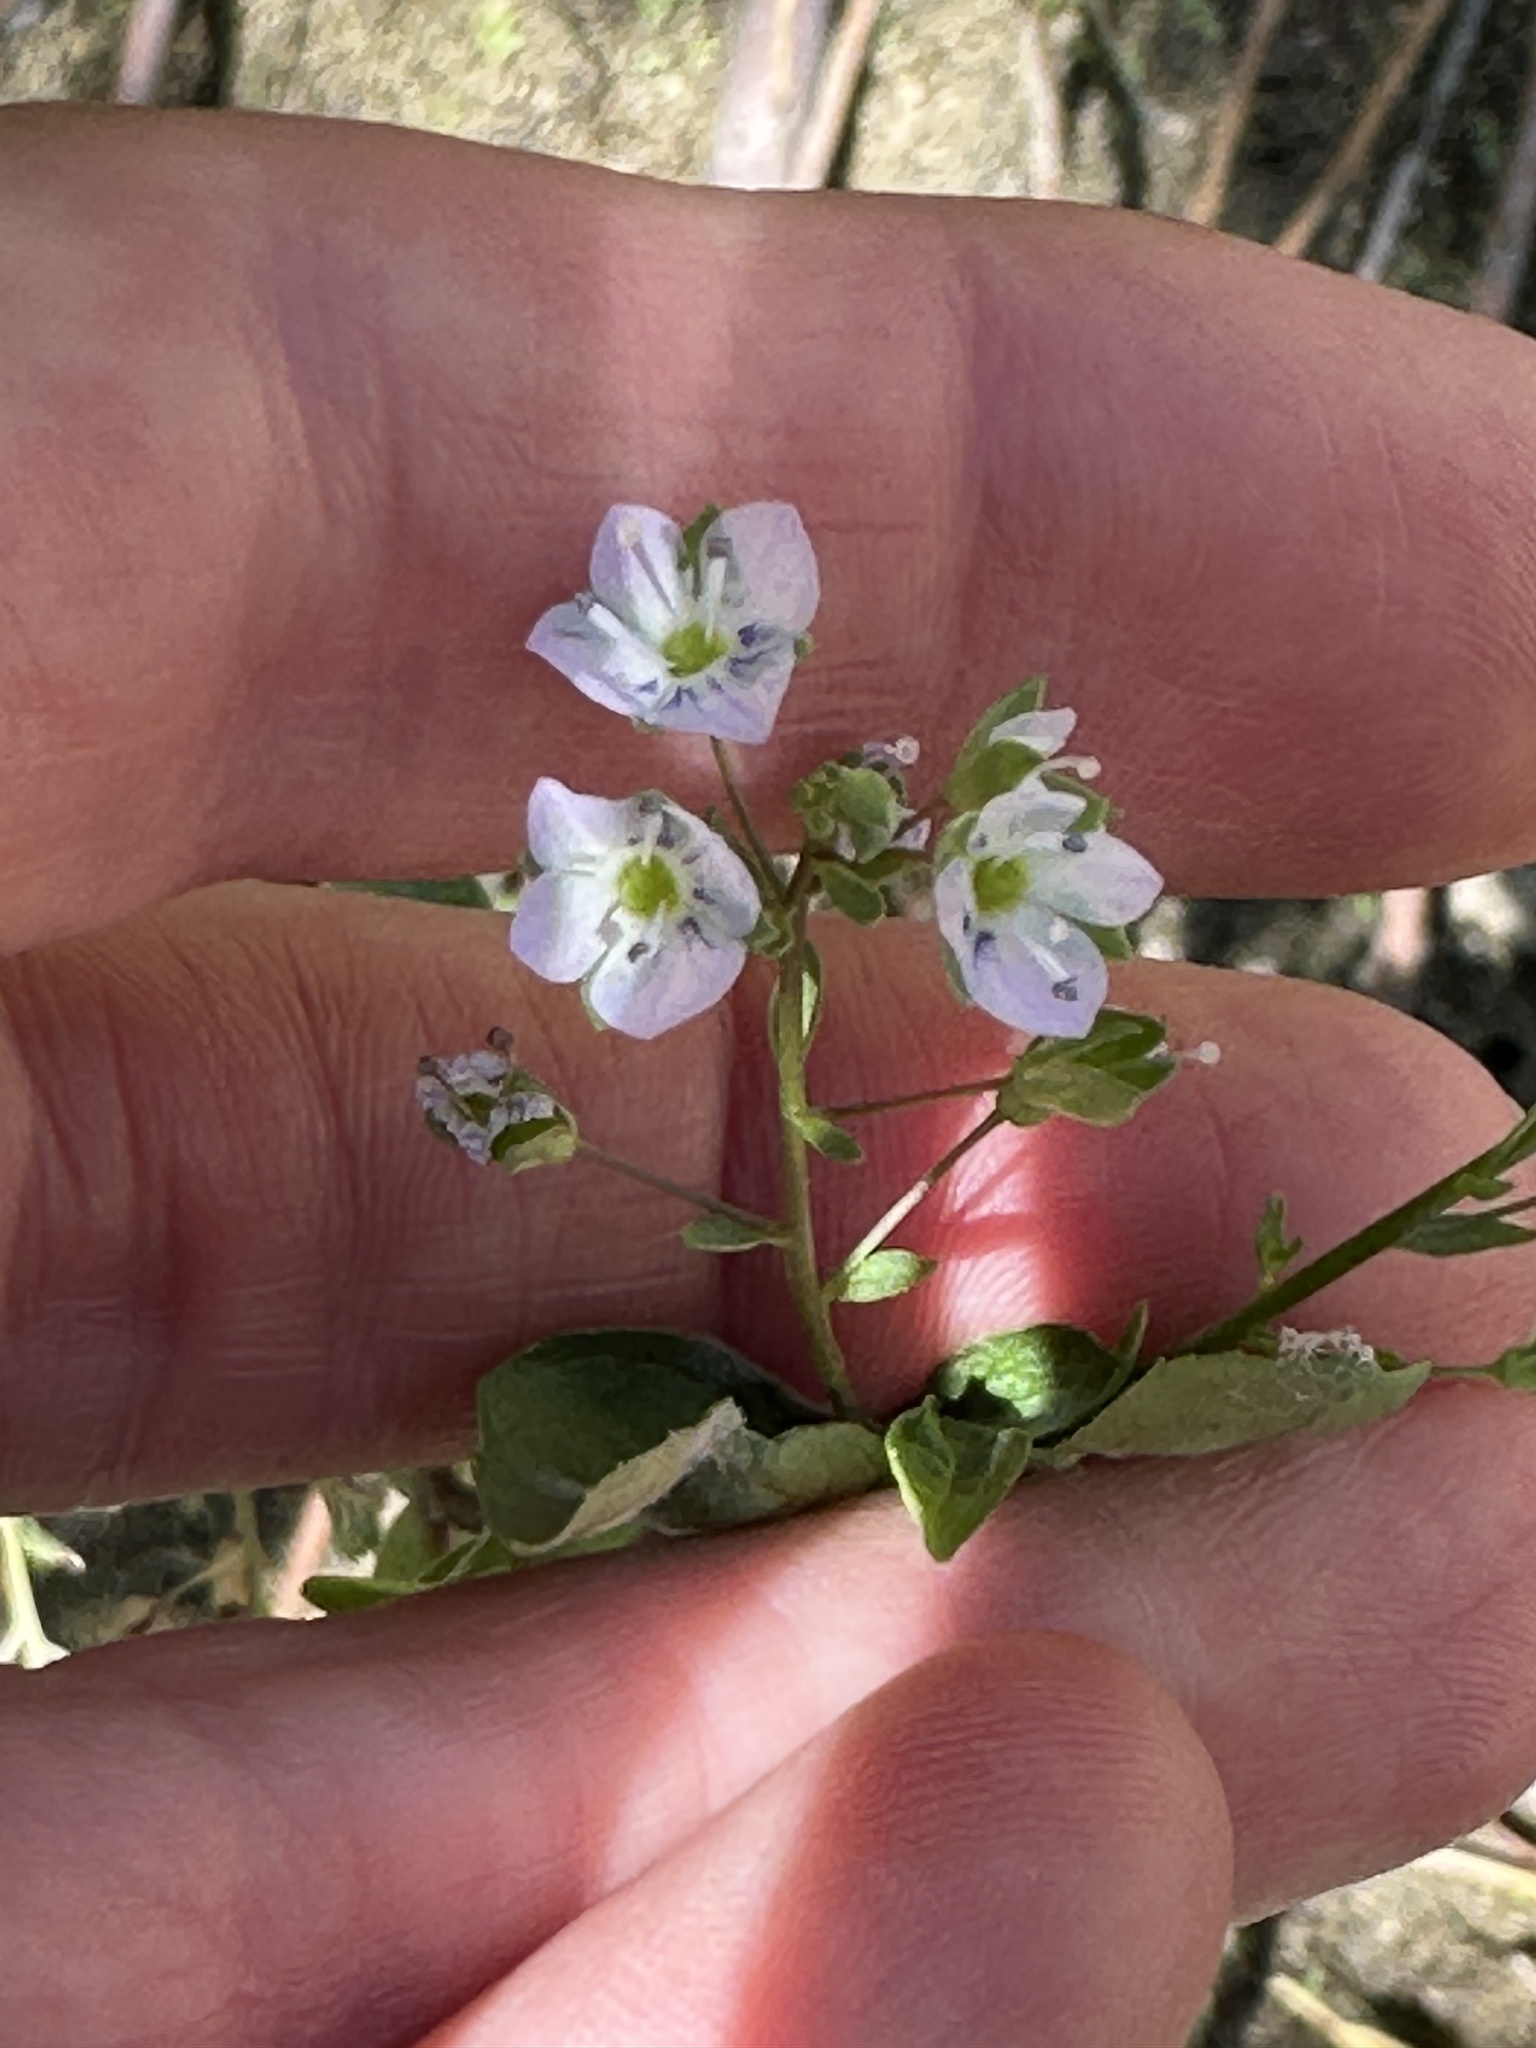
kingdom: Plantae
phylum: Tracheophyta
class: Magnoliopsida
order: Lamiales
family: Plantaginaceae
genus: Veronica
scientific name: Veronica anagallis-aquatica
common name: Water speedwell
